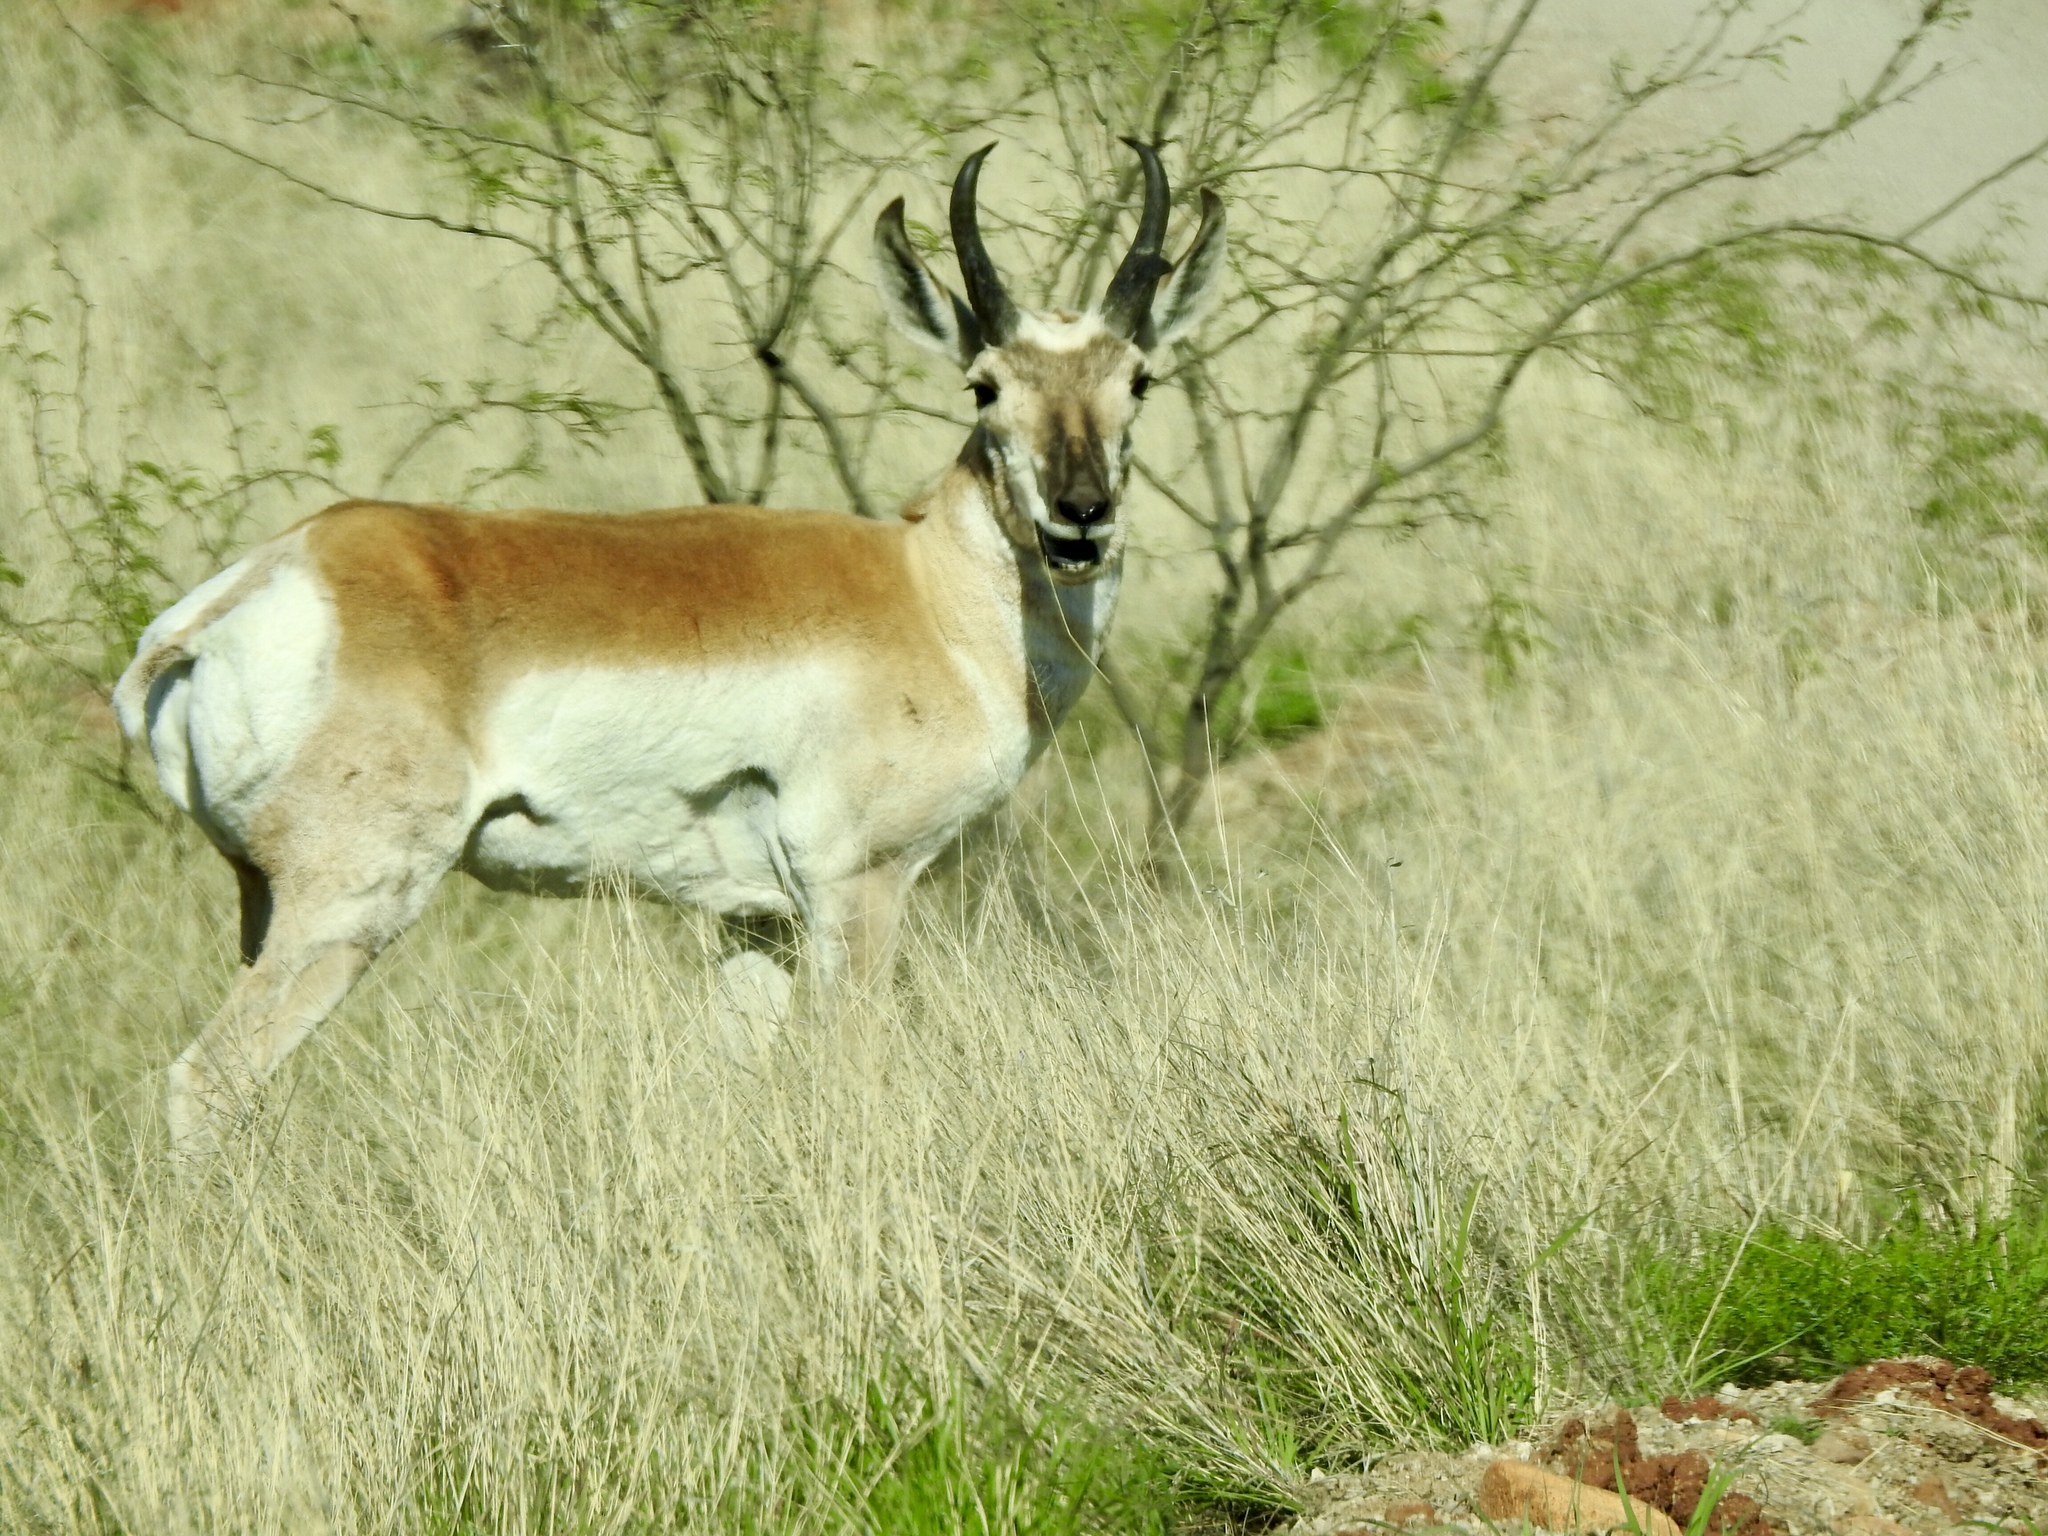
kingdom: Animalia
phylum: Chordata
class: Mammalia
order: Artiodactyla
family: Antilocapridae
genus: Antilocapra
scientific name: Antilocapra americana
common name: Pronghorn
